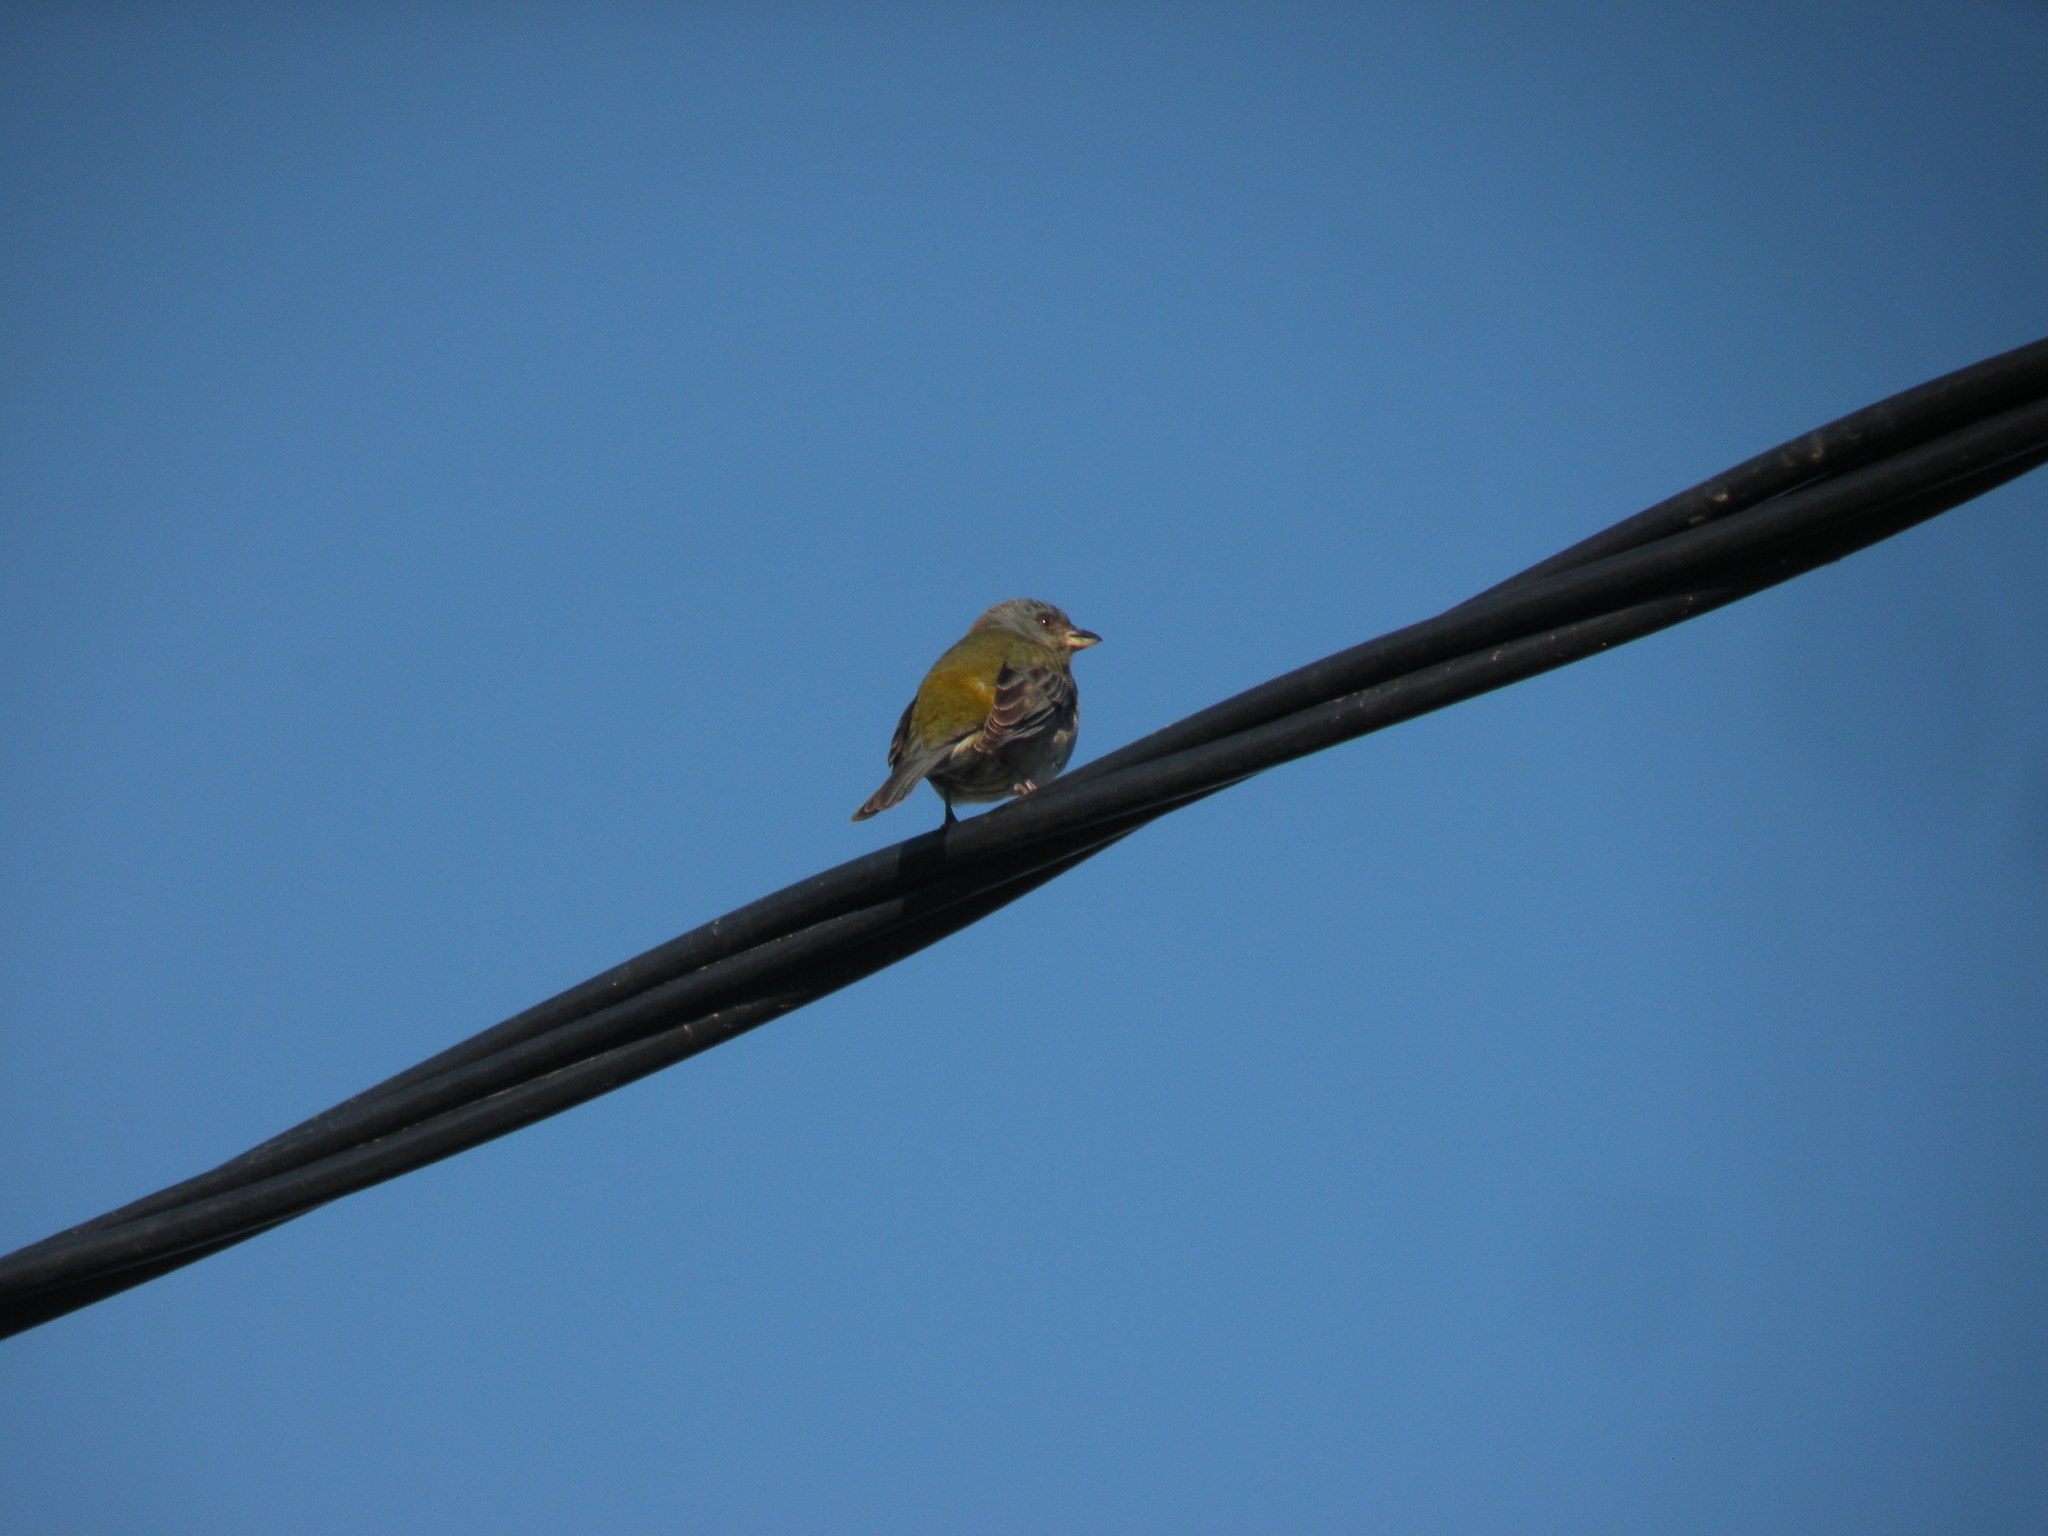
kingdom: Animalia
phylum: Chordata
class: Aves
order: Passeriformes
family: Thraupidae
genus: Rauenia
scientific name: Rauenia bonariensis
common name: Blue-and-yellow tanager
